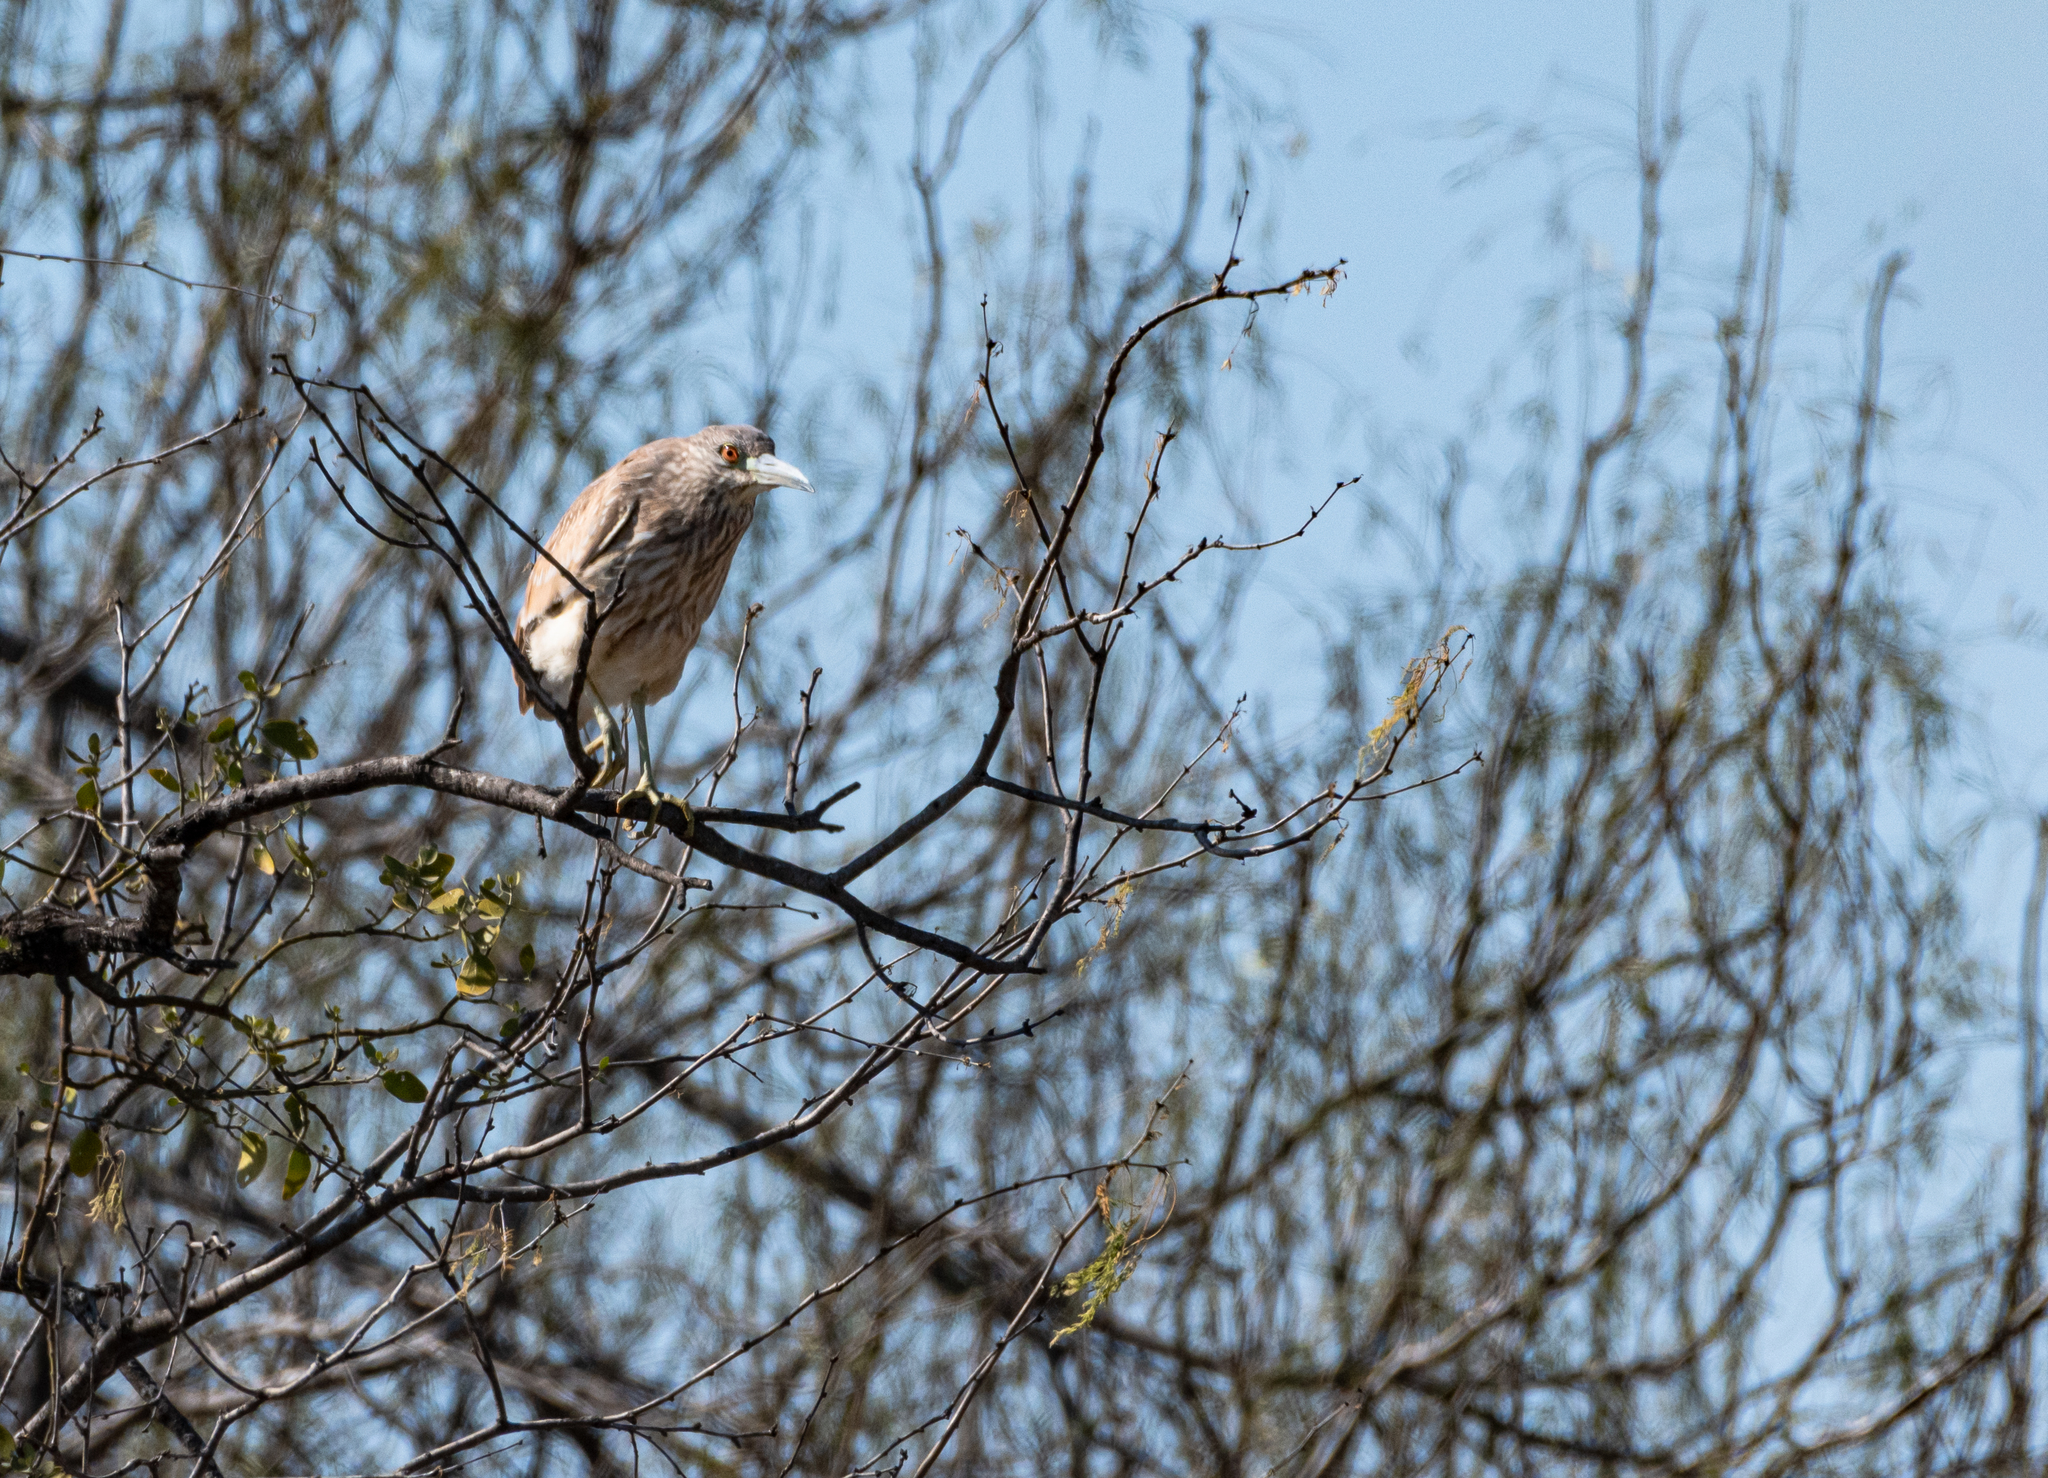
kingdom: Animalia
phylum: Chordata
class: Aves
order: Pelecaniformes
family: Ardeidae
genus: Nycticorax
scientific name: Nycticorax nycticorax
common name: Black-crowned night heron
